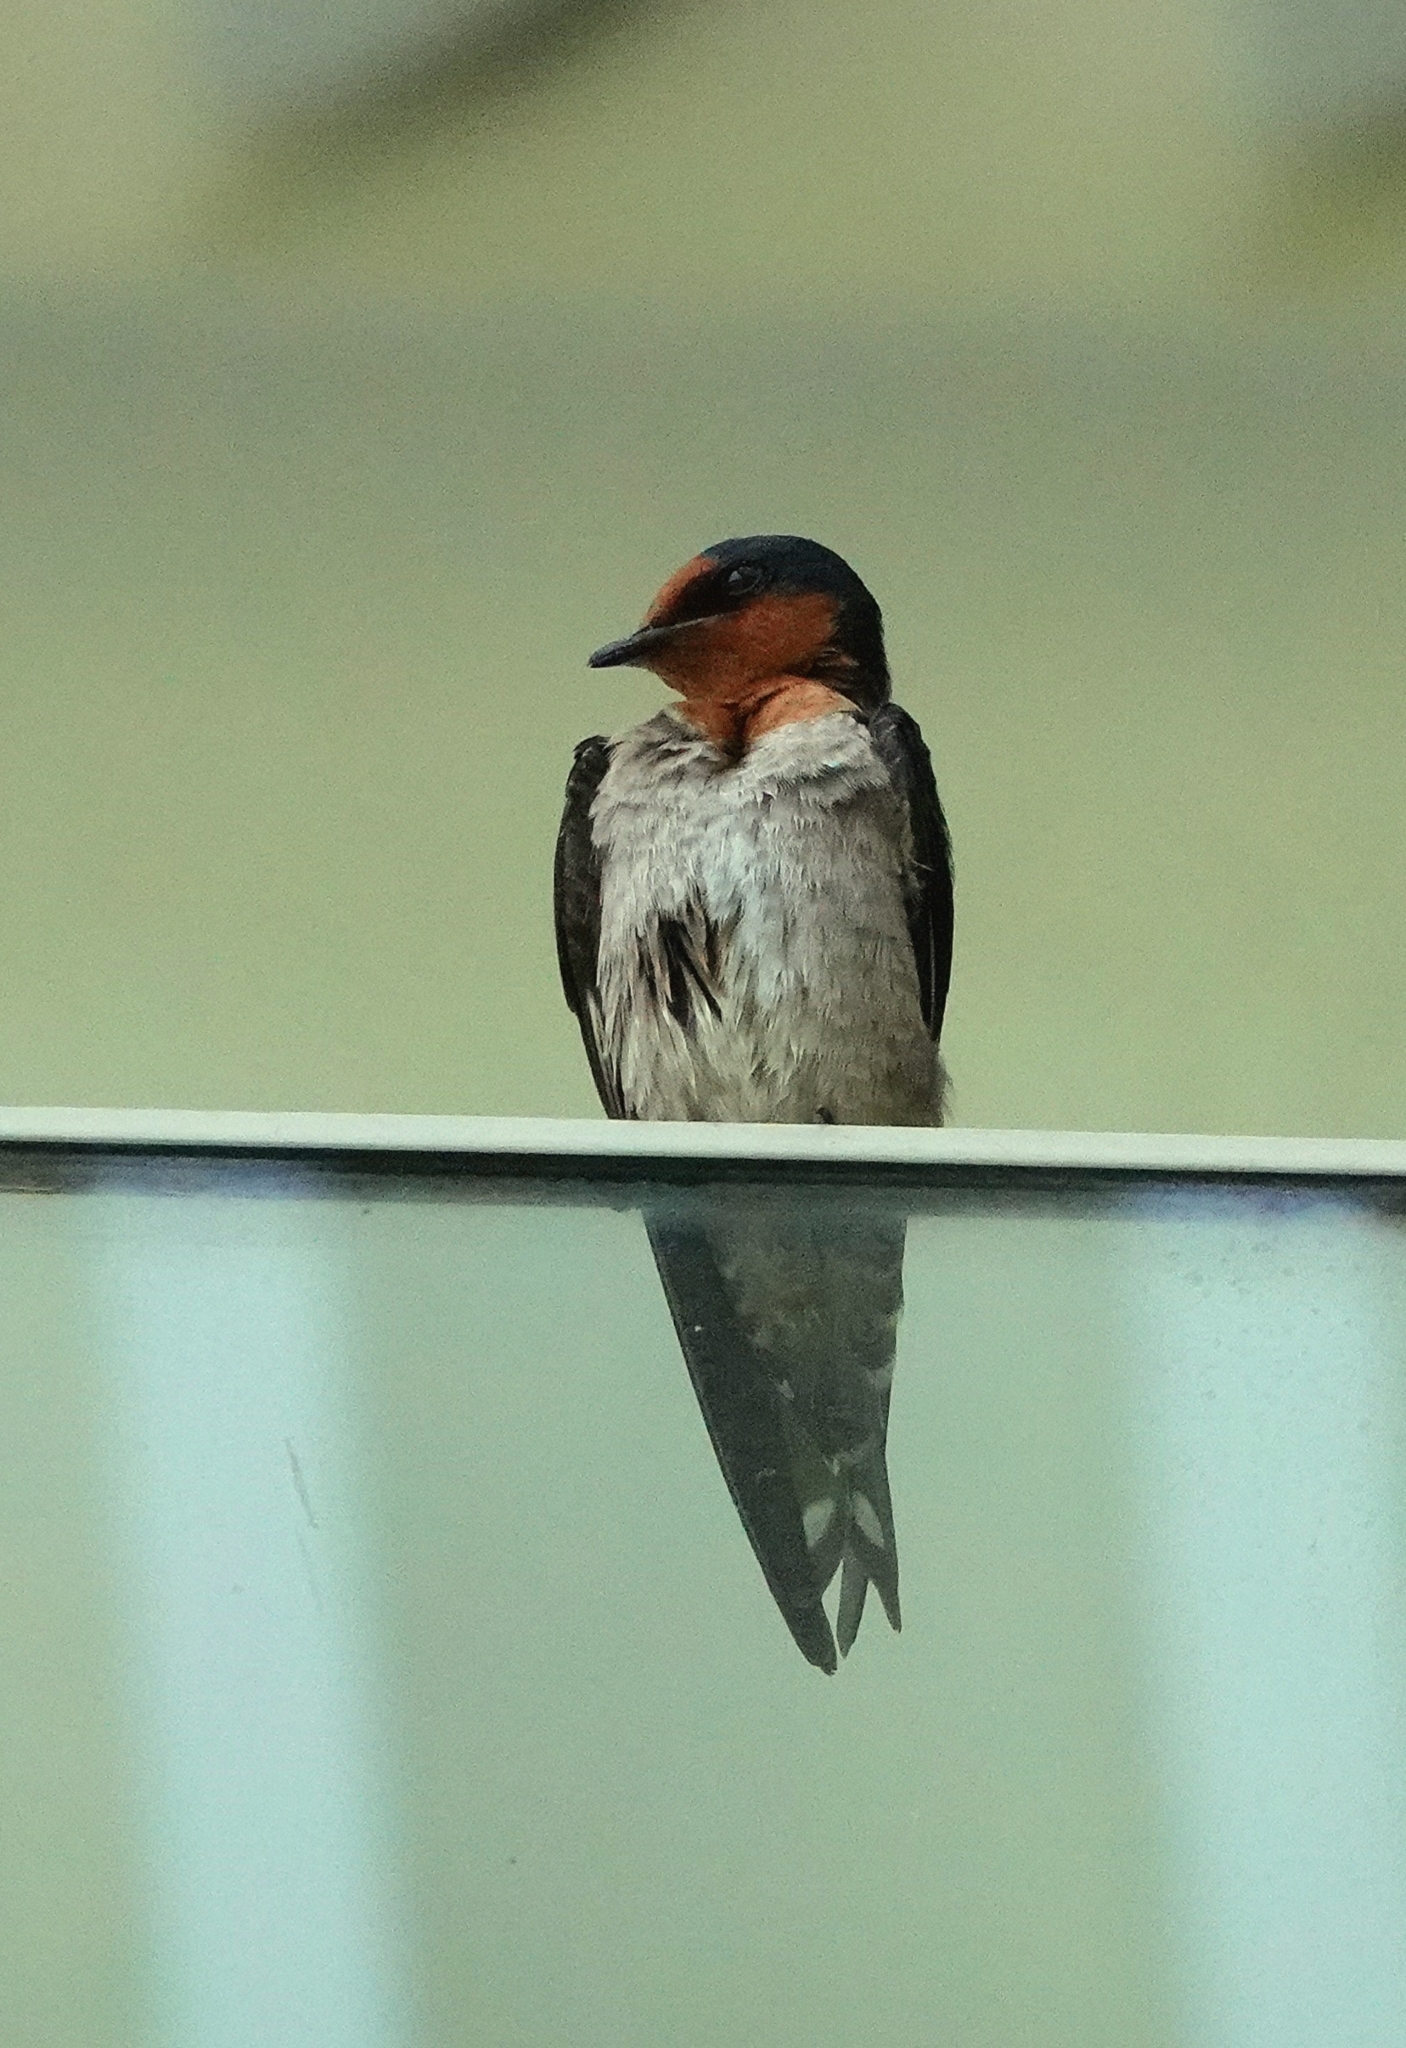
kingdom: Animalia
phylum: Chordata
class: Aves
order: Passeriformes
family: Hirundinidae
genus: Hirundo
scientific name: Hirundo tahitica
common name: Pacific swallow
